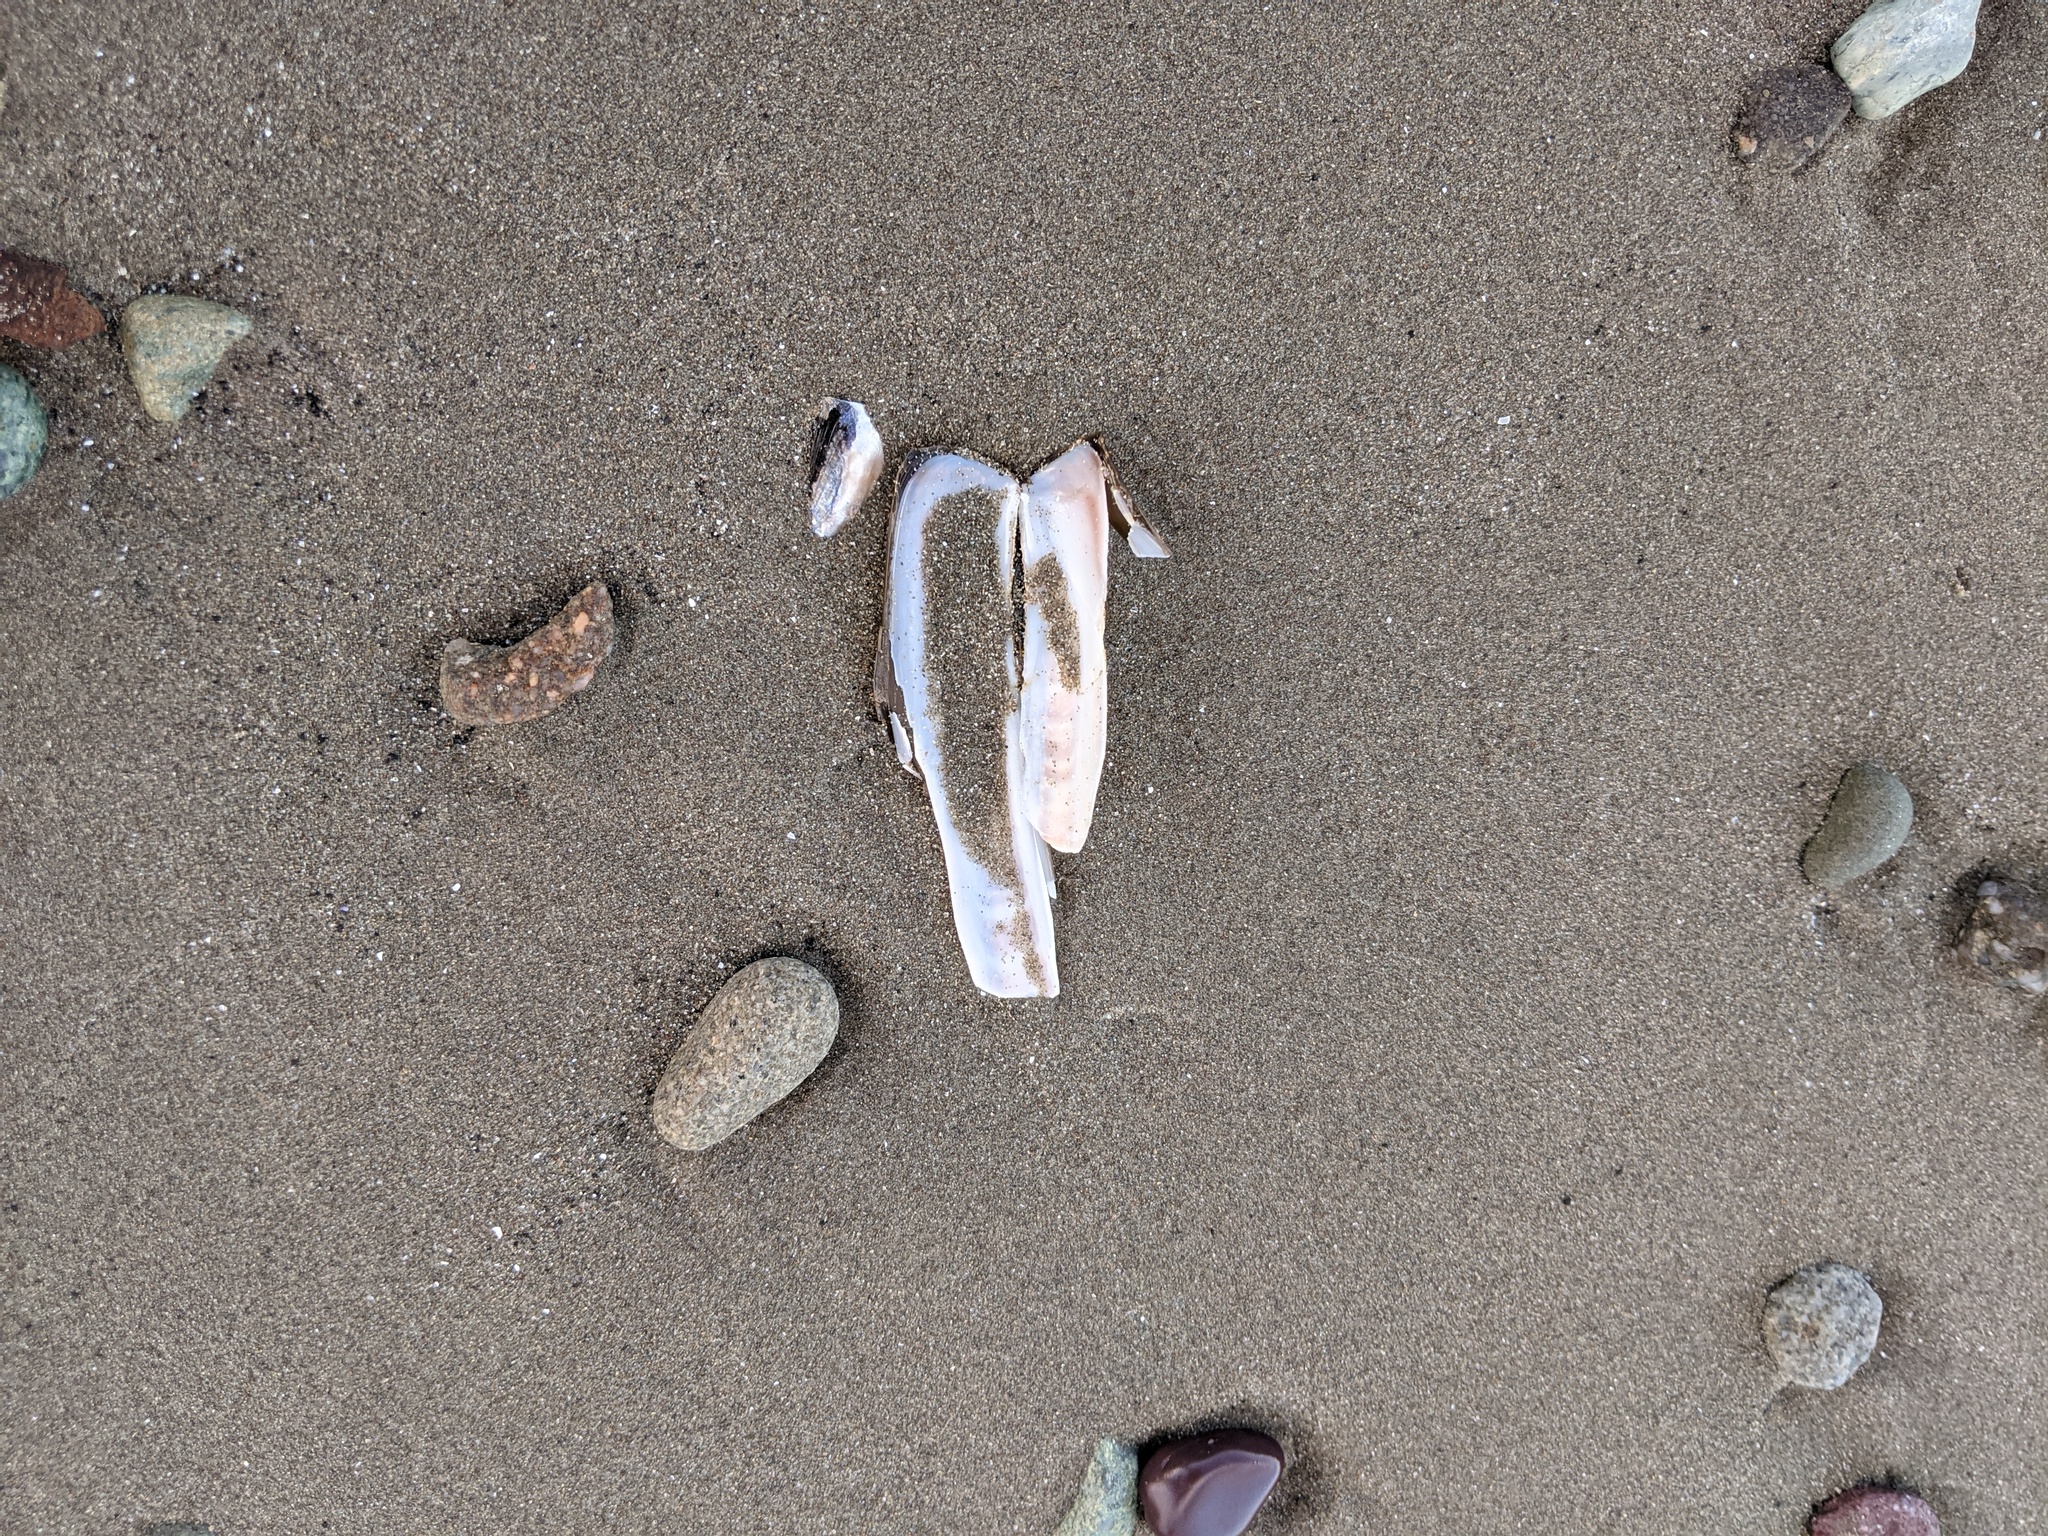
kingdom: Animalia
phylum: Mollusca
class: Bivalvia
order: Adapedonta
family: Pharidae
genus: Ensis
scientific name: Ensis leei
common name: American jack knife clam
